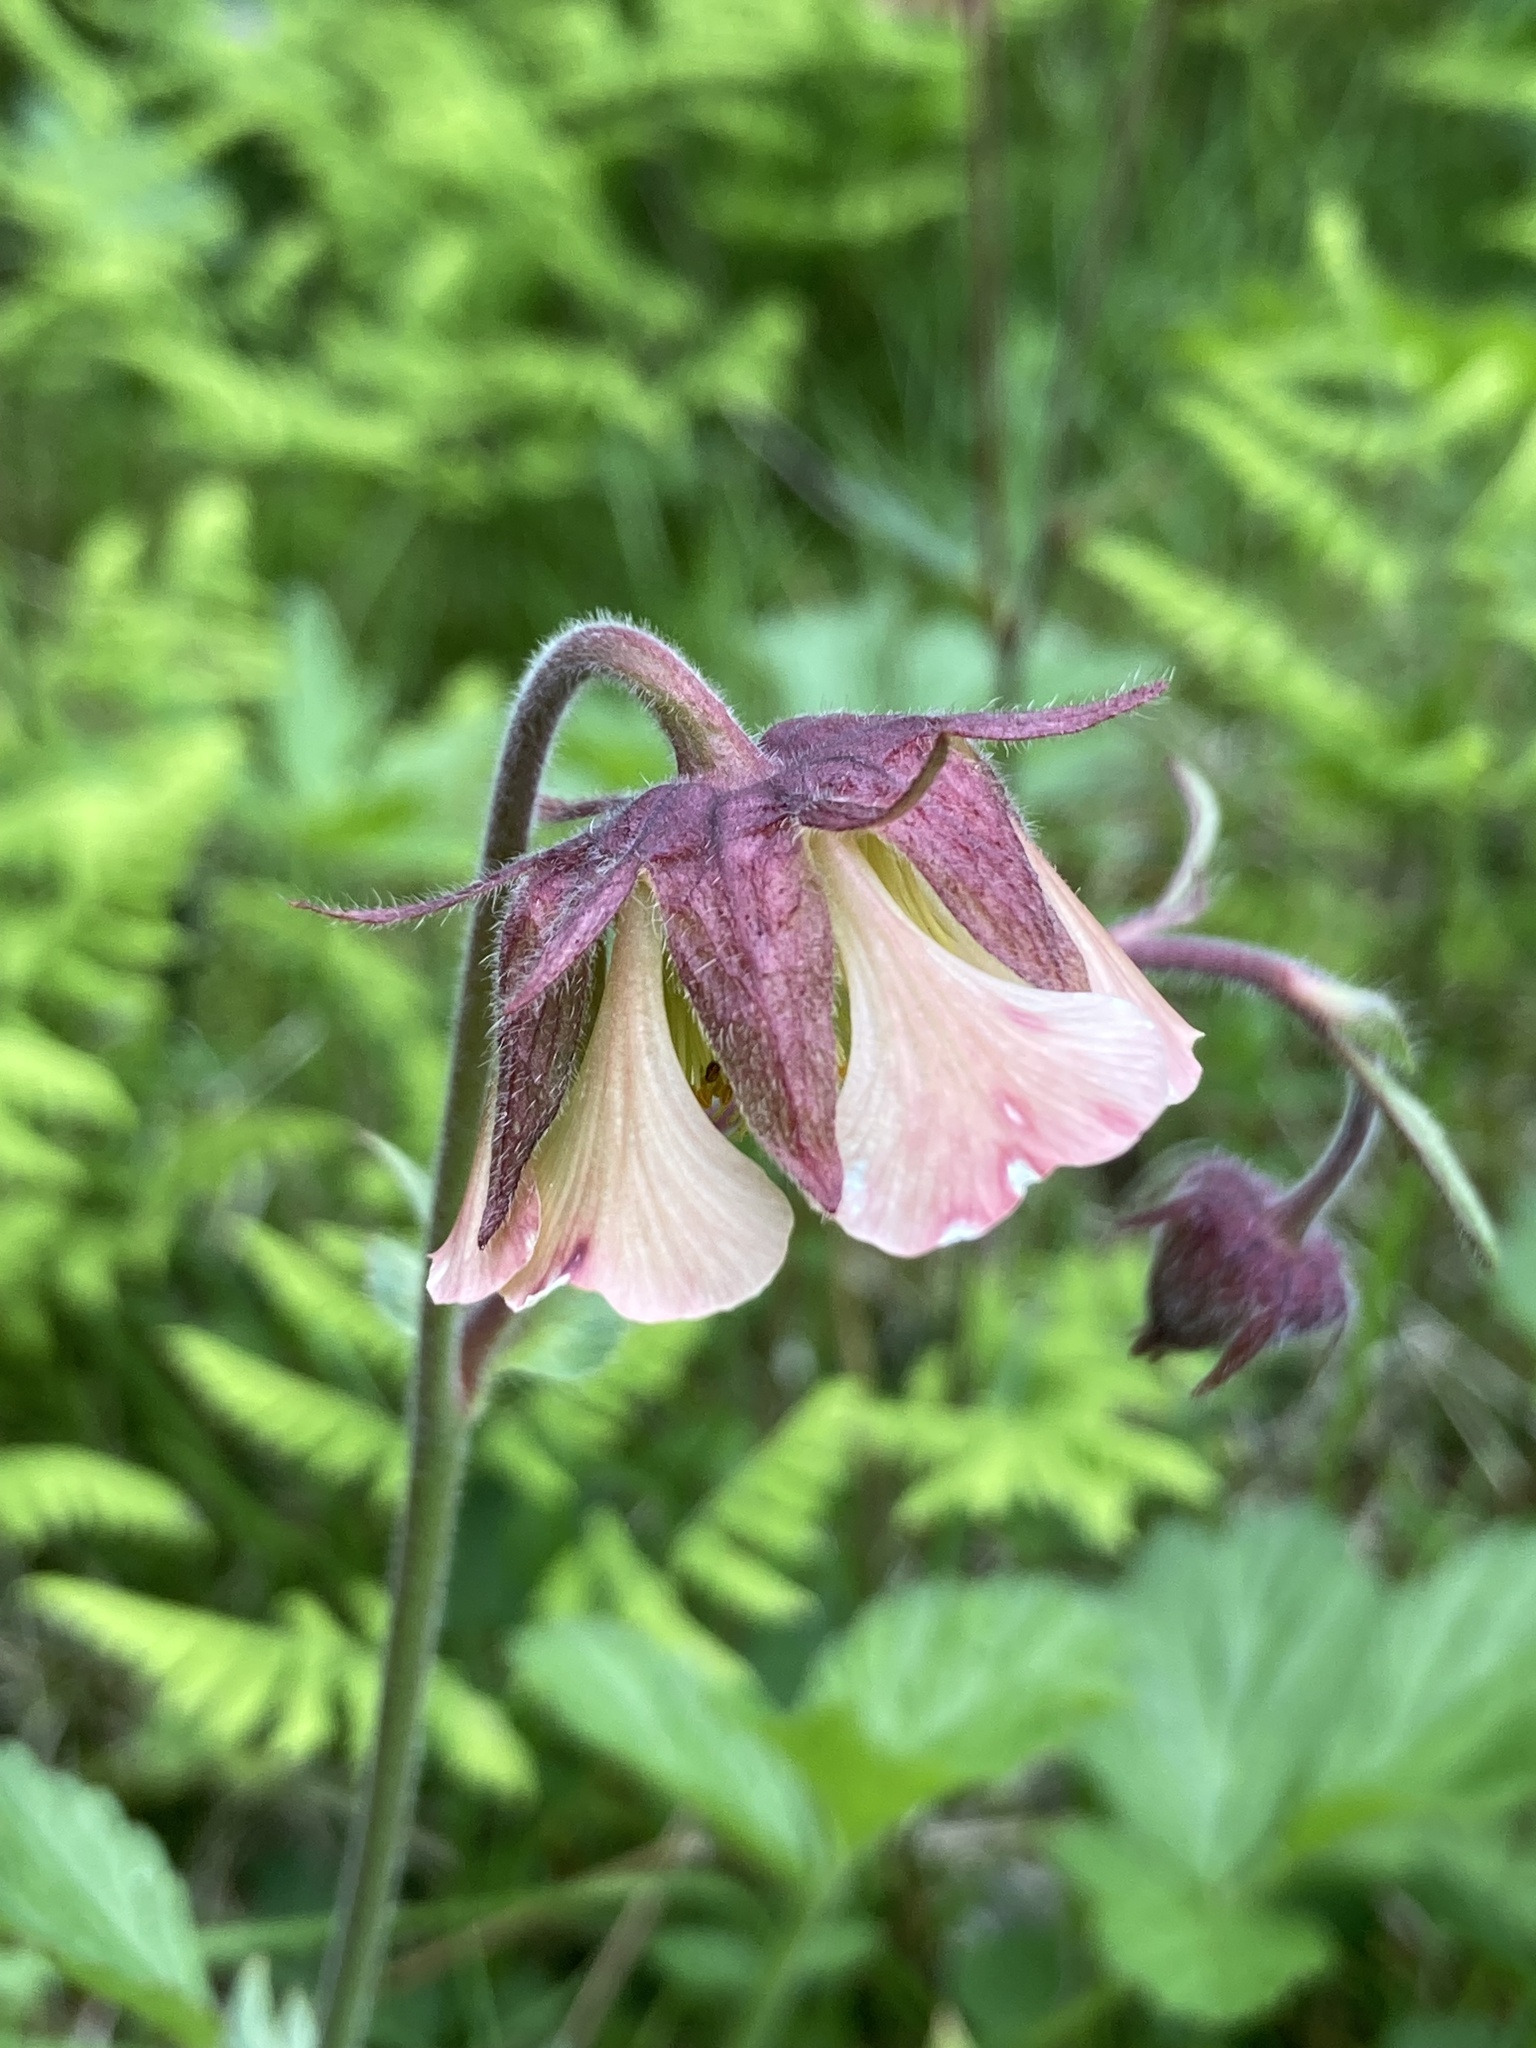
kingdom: Plantae
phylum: Tracheophyta
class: Magnoliopsida
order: Rosales
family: Rosaceae
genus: Geum
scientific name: Geum rivale
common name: Water avens
